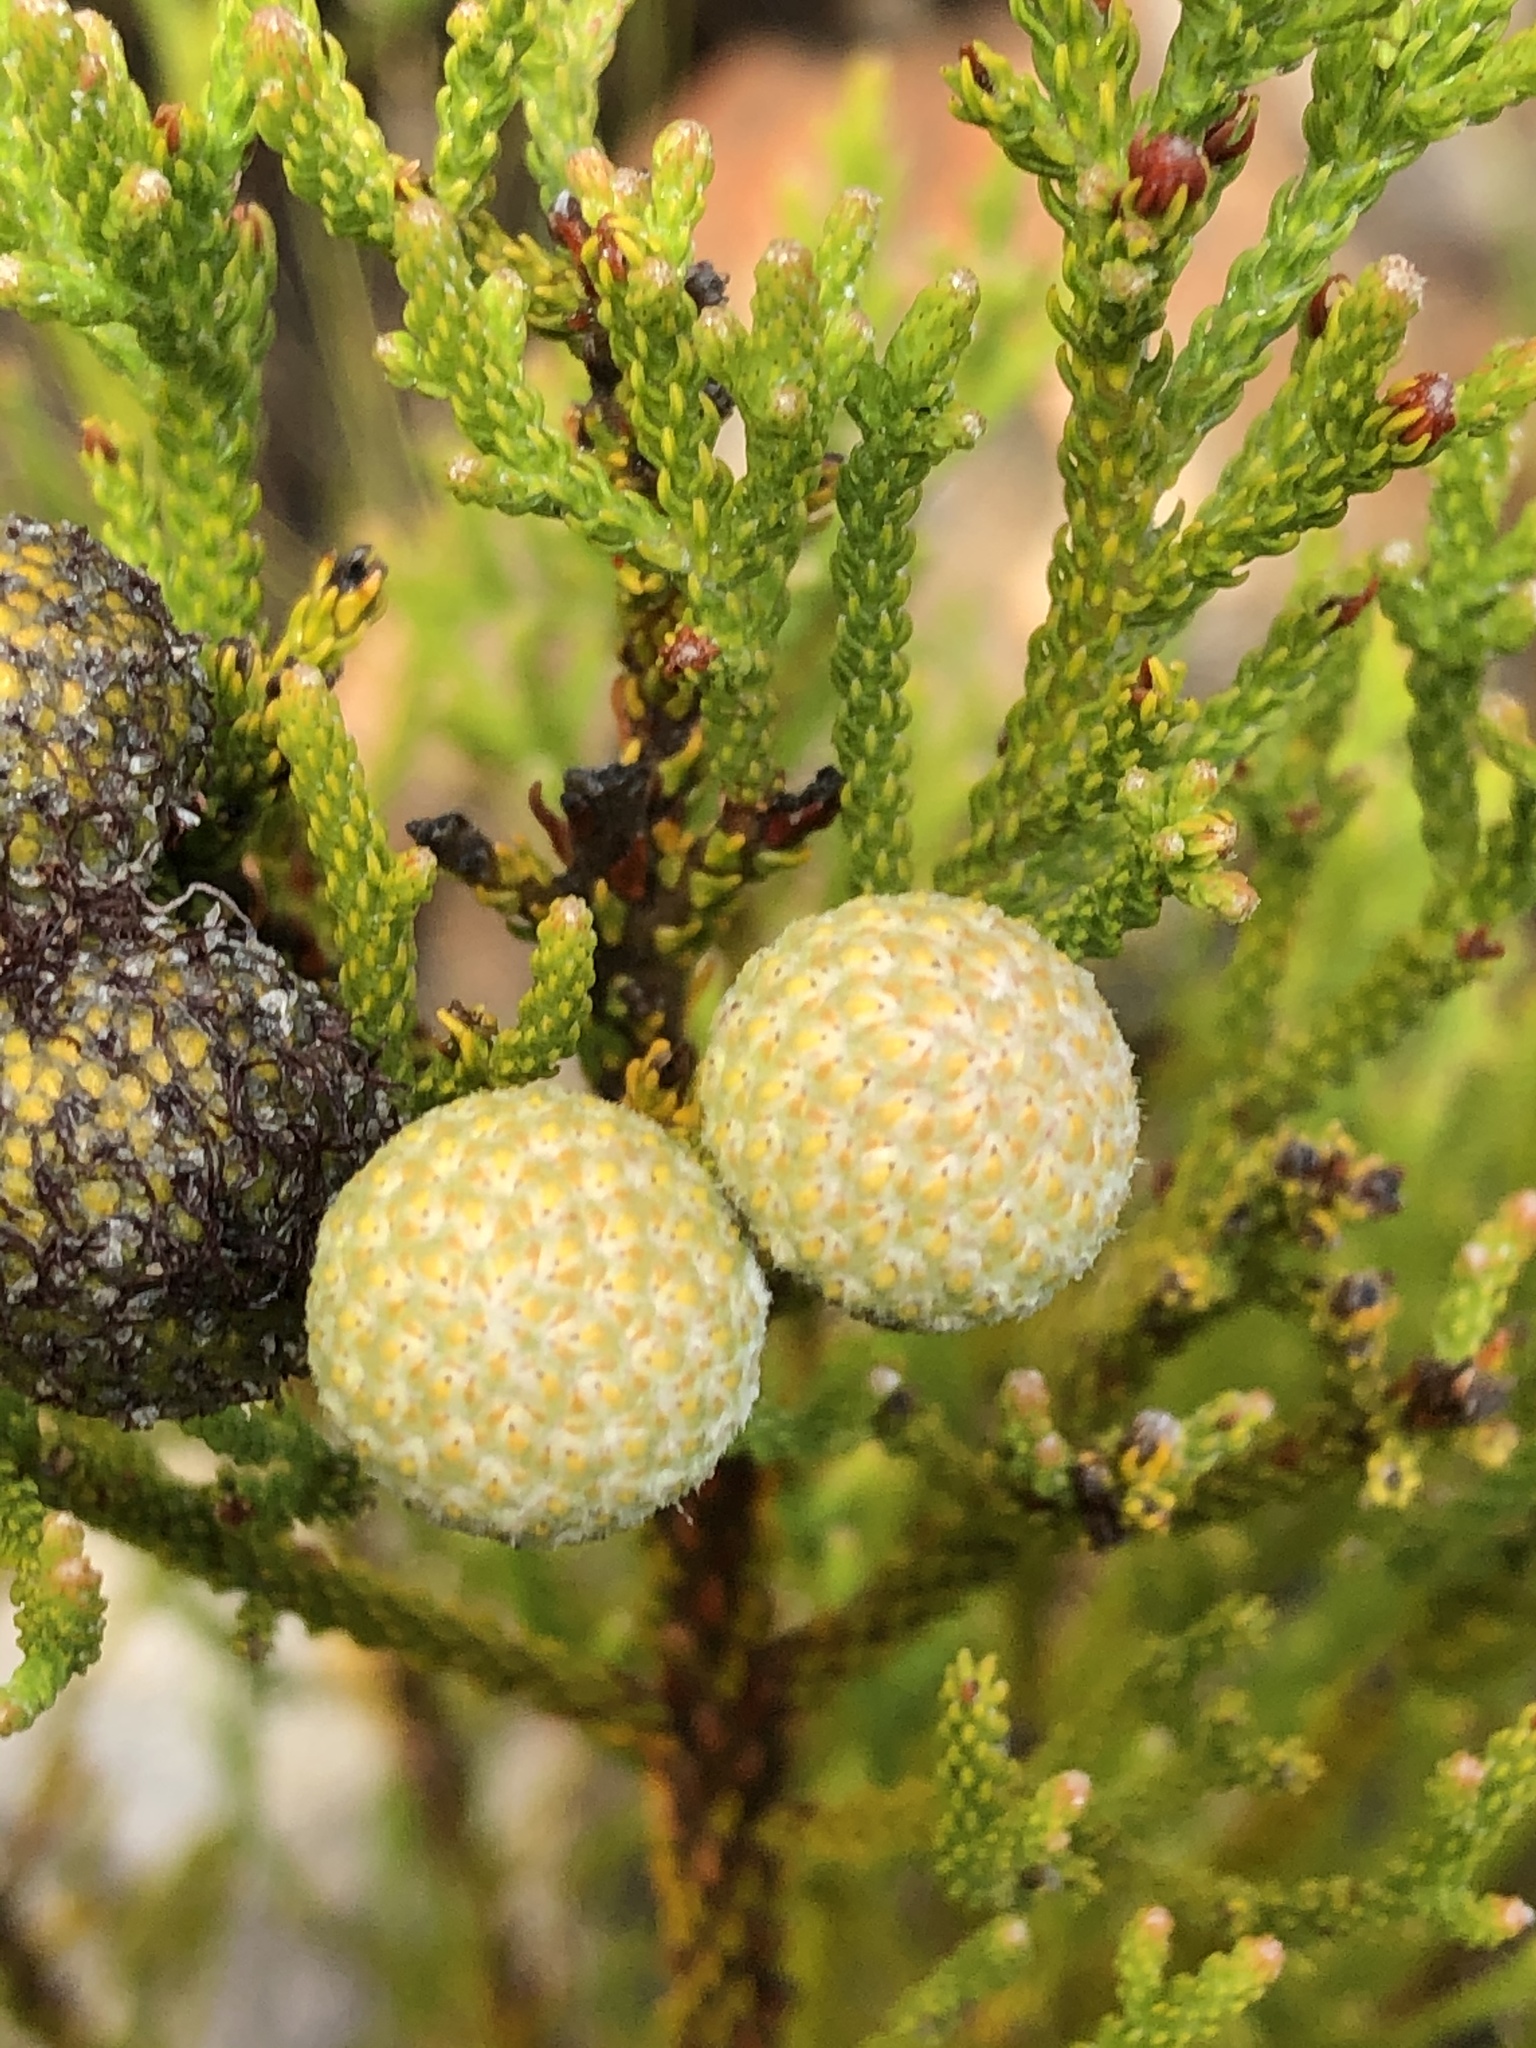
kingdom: Plantae
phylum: Tracheophyta
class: Magnoliopsida
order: Bruniales
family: Bruniaceae
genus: Brunia
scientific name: Brunia noduliflora
